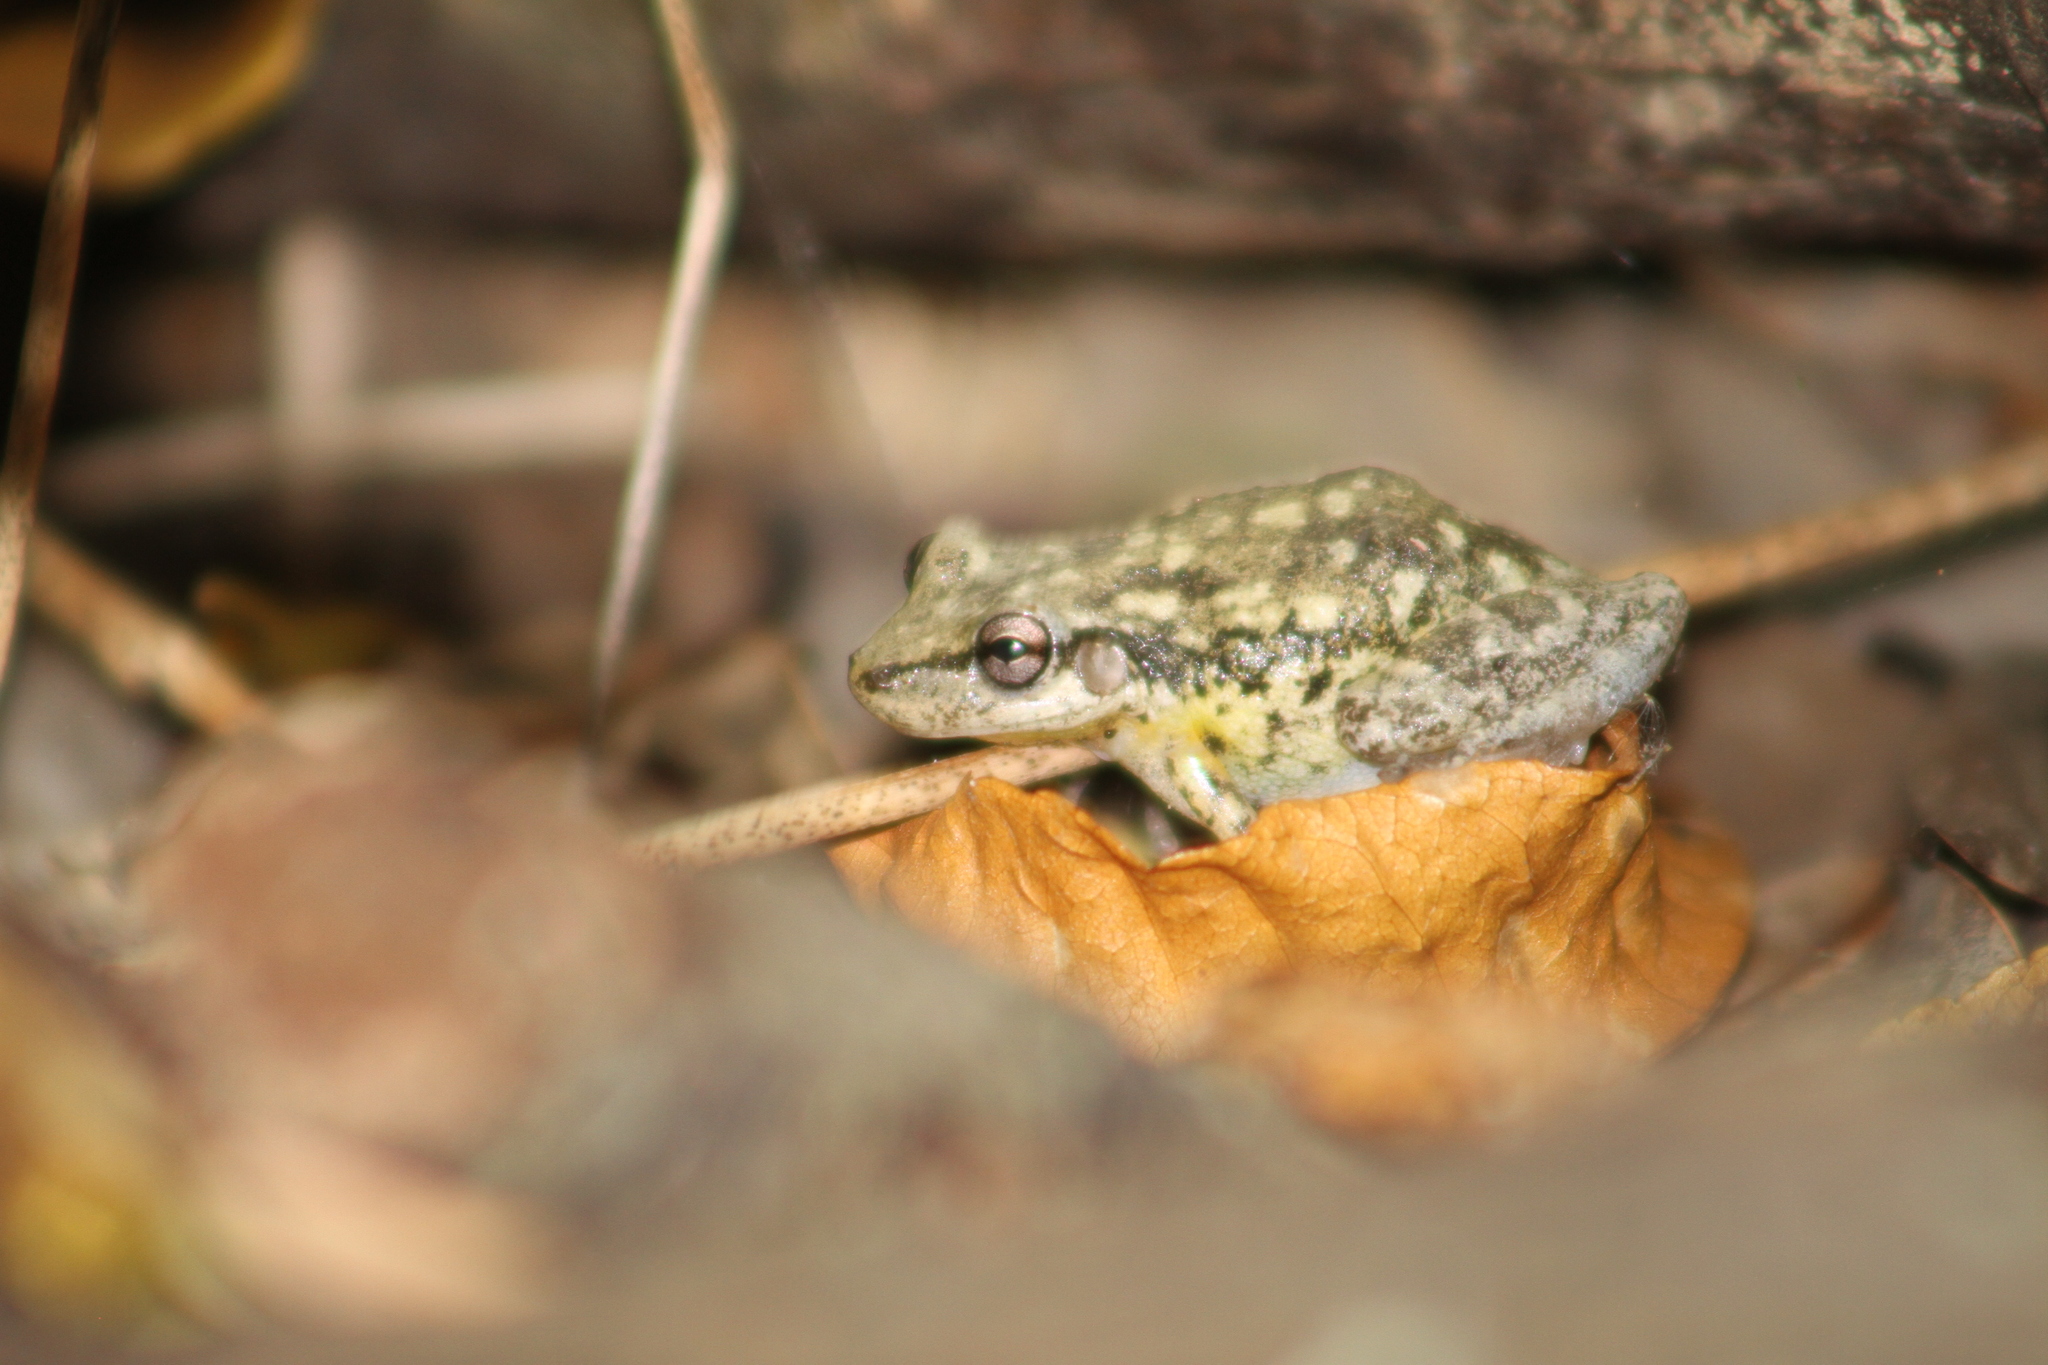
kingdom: Animalia
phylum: Chordata
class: Amphibia
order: Anura
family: Hylidae
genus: Scinax
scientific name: Scinax nasicus
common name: Lesser snouted treefrog
